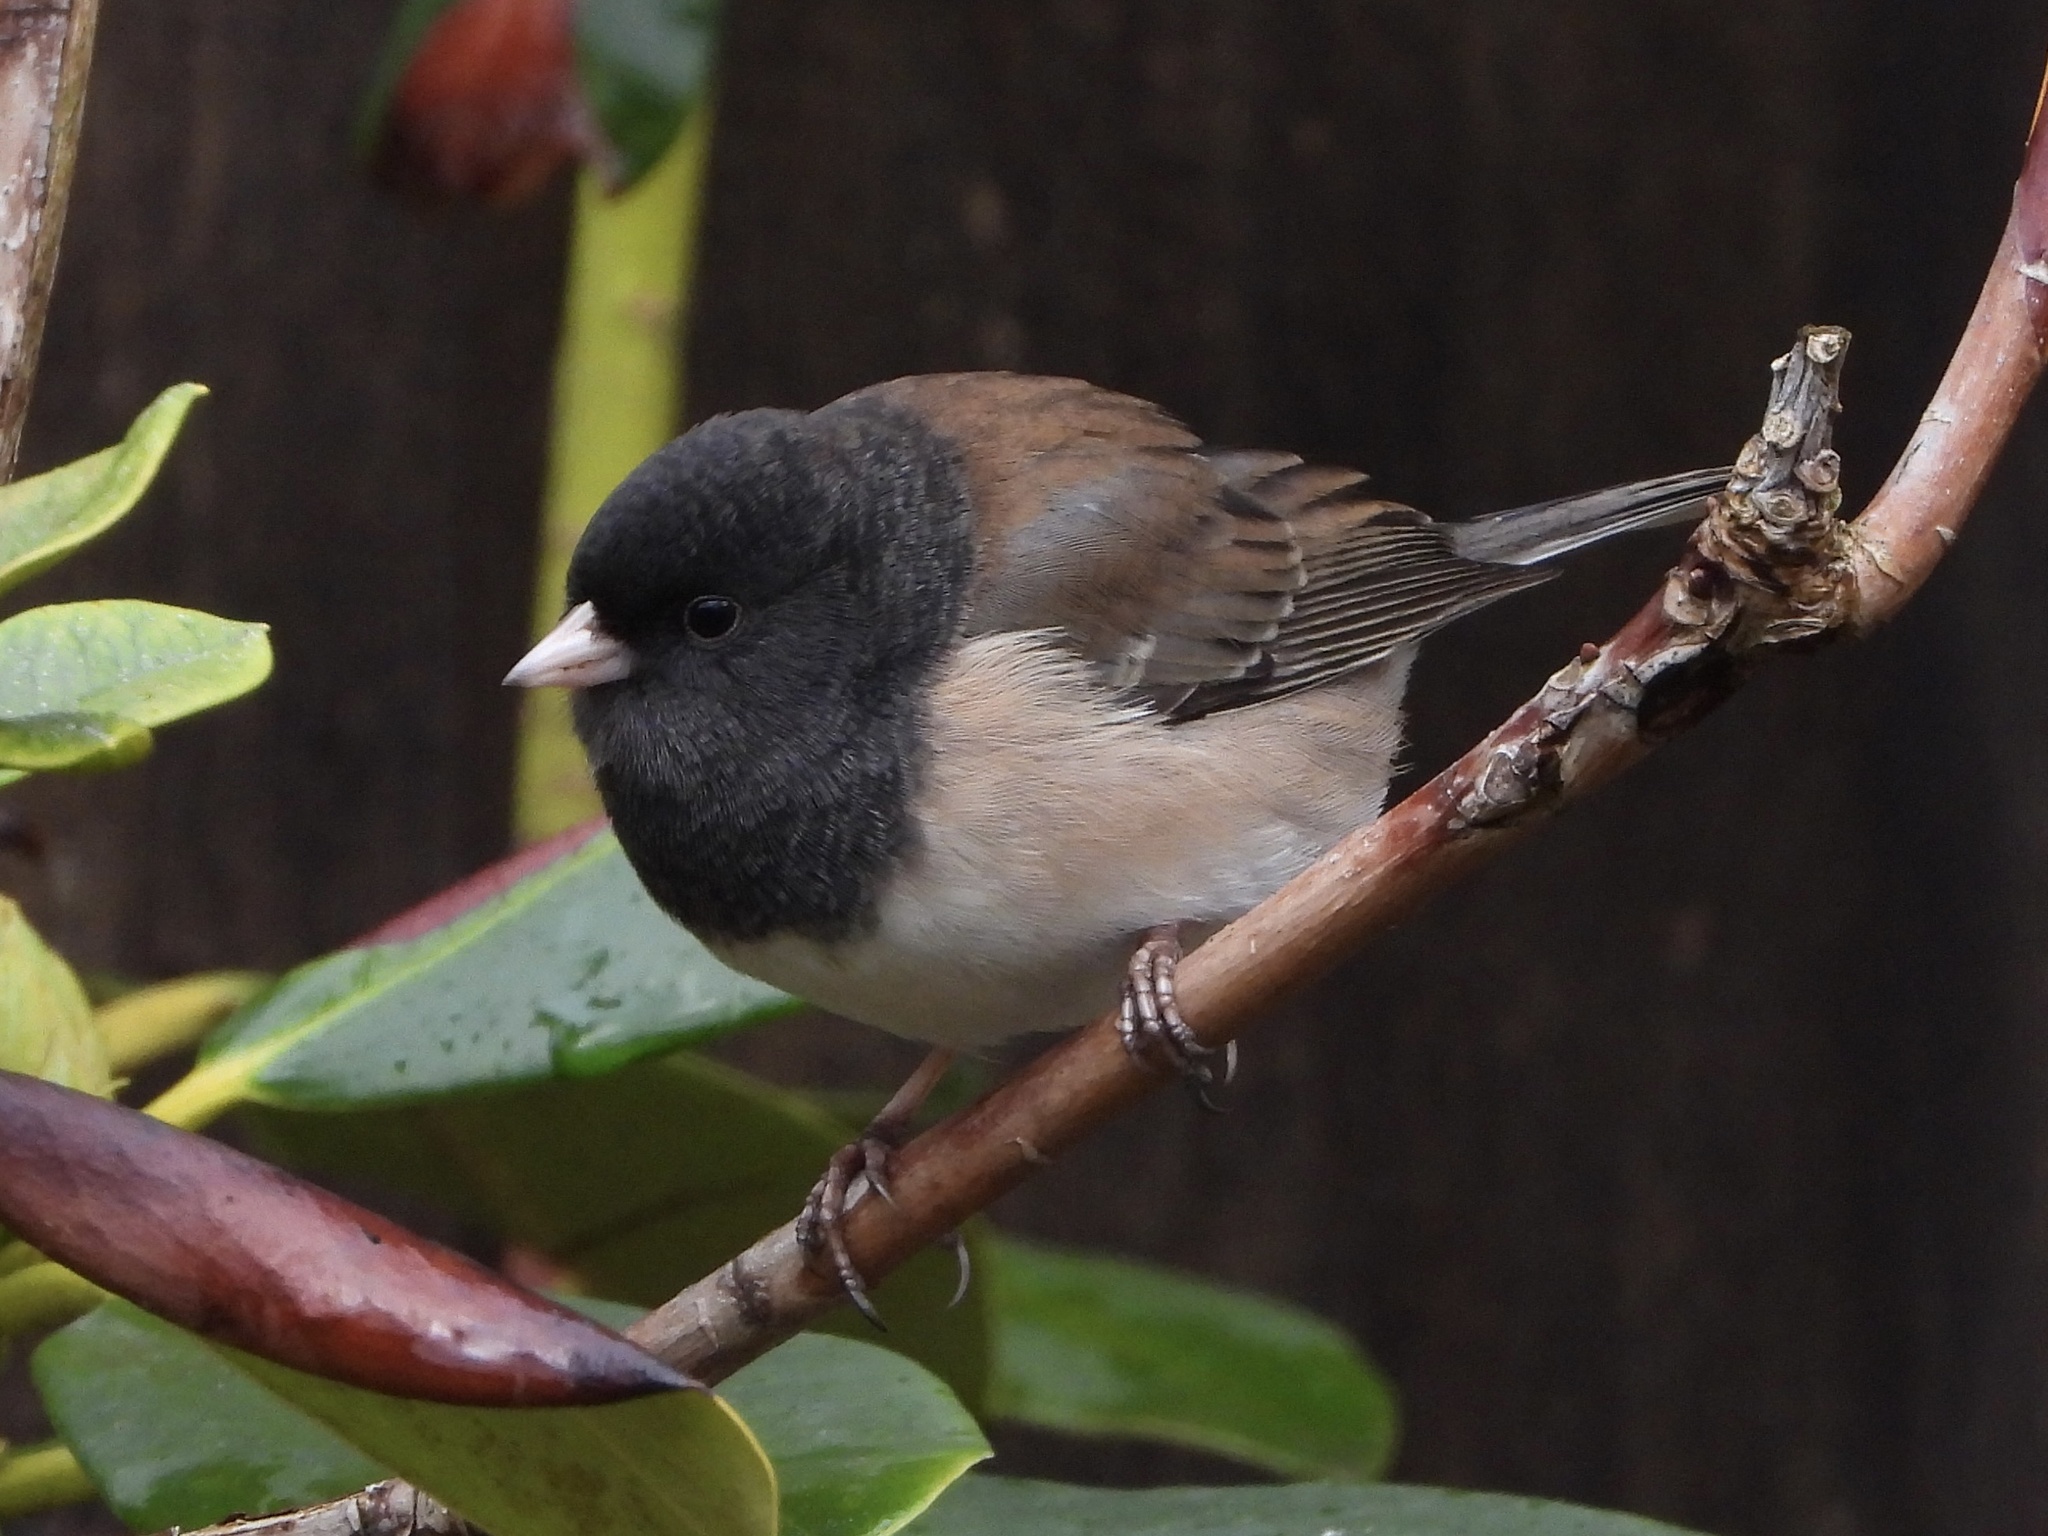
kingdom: Animalia
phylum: Chordata
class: Aves
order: Passeriformes
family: Passerellidae
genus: Junco
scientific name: Junco hyemalis
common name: Dark-eyed junco
